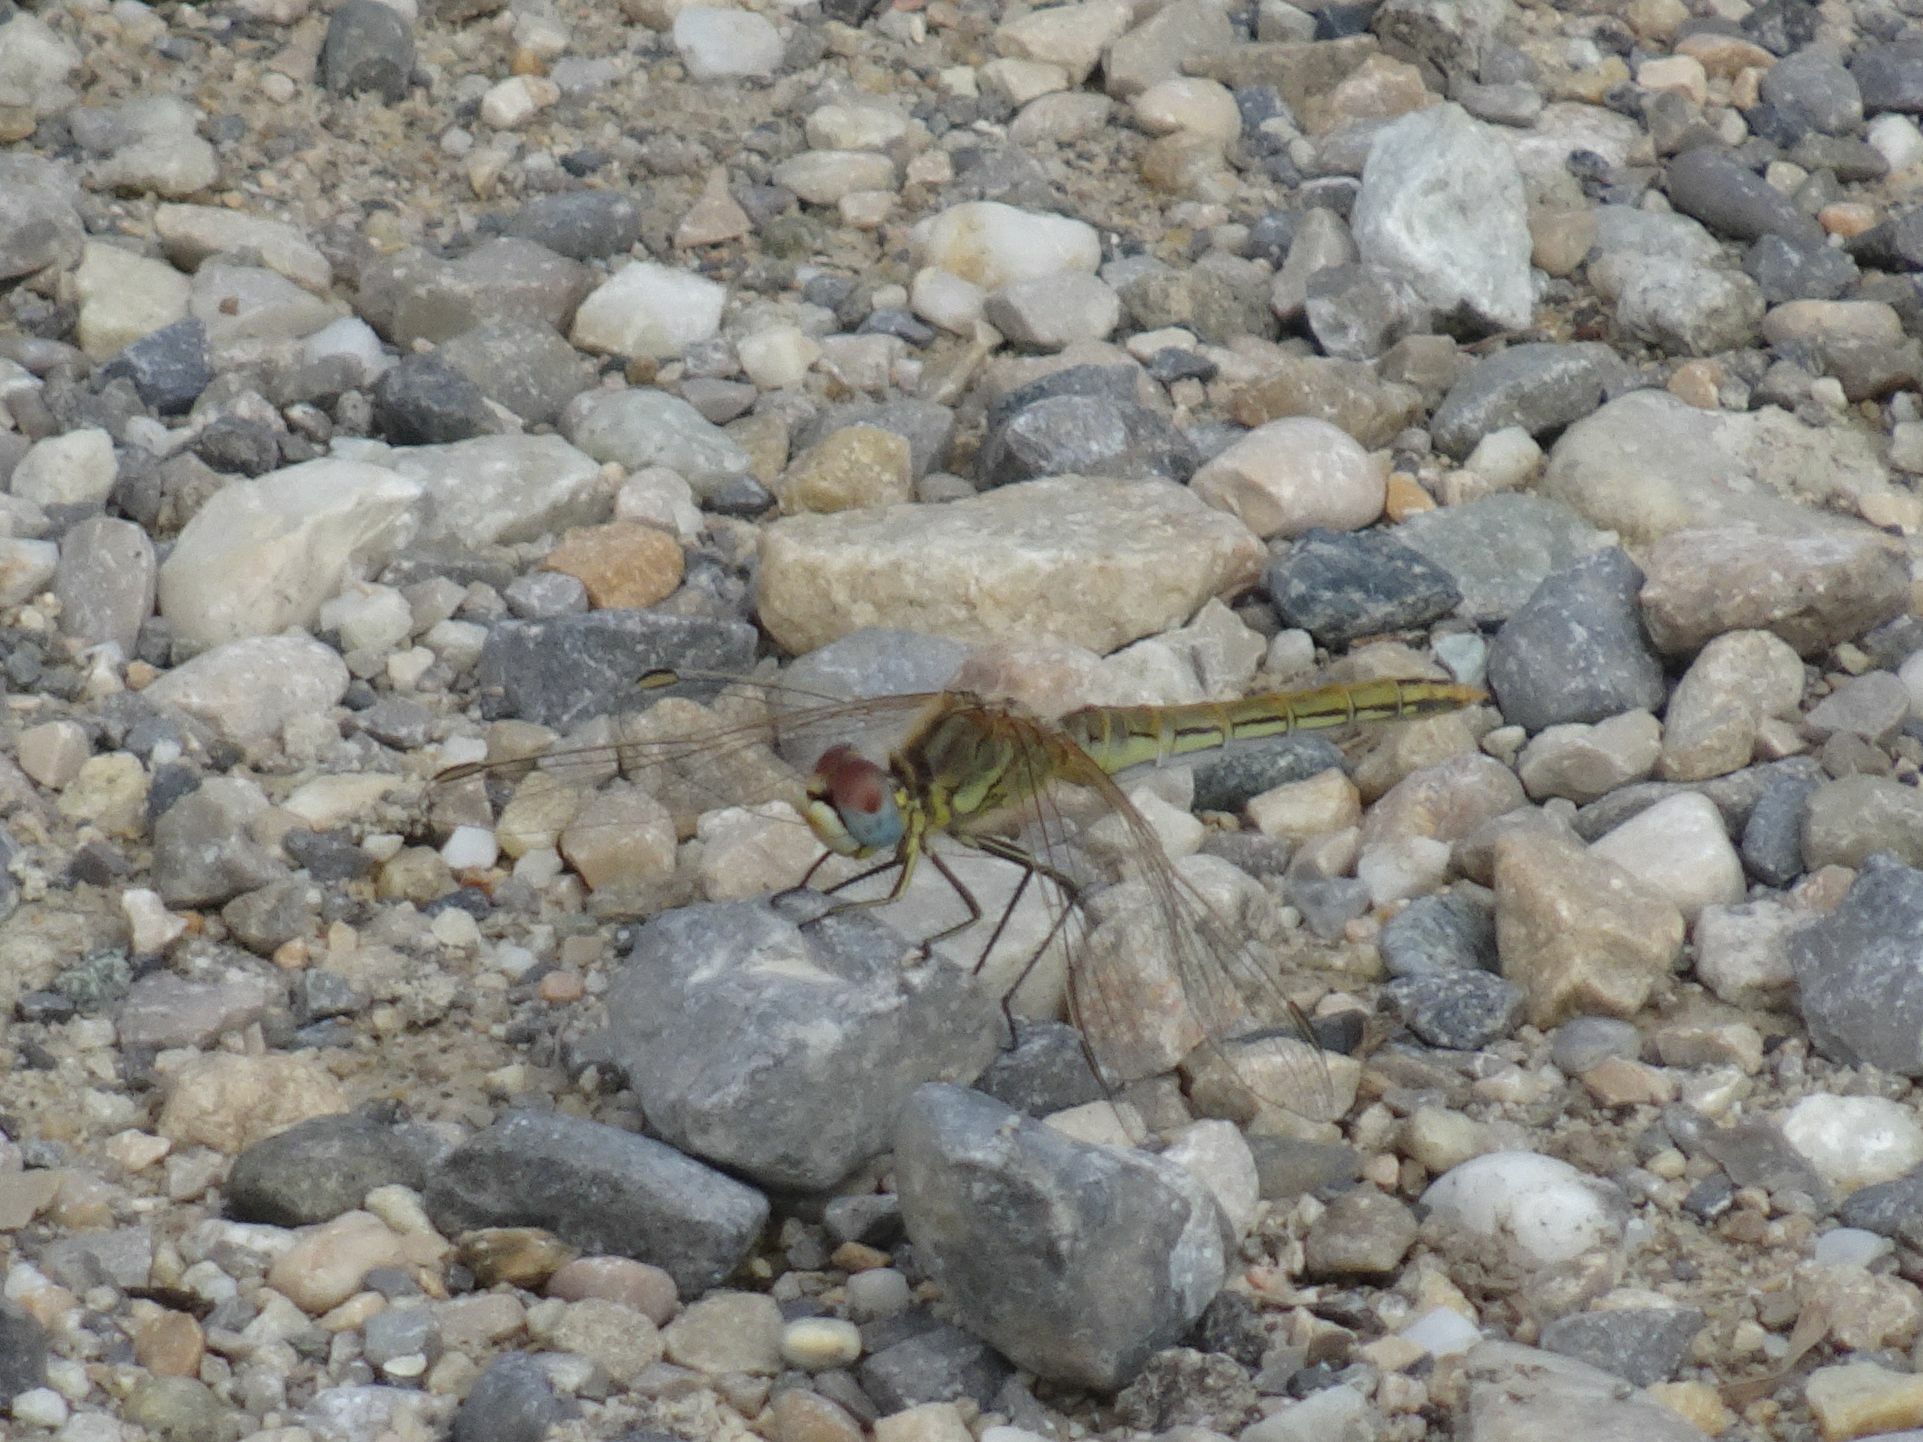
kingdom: Animalia
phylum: Arthropoda
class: Insecta
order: Odonata
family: Libellulidae
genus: Sympetrum
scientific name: Sympetrum fonscolombii
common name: Red-veined darter
